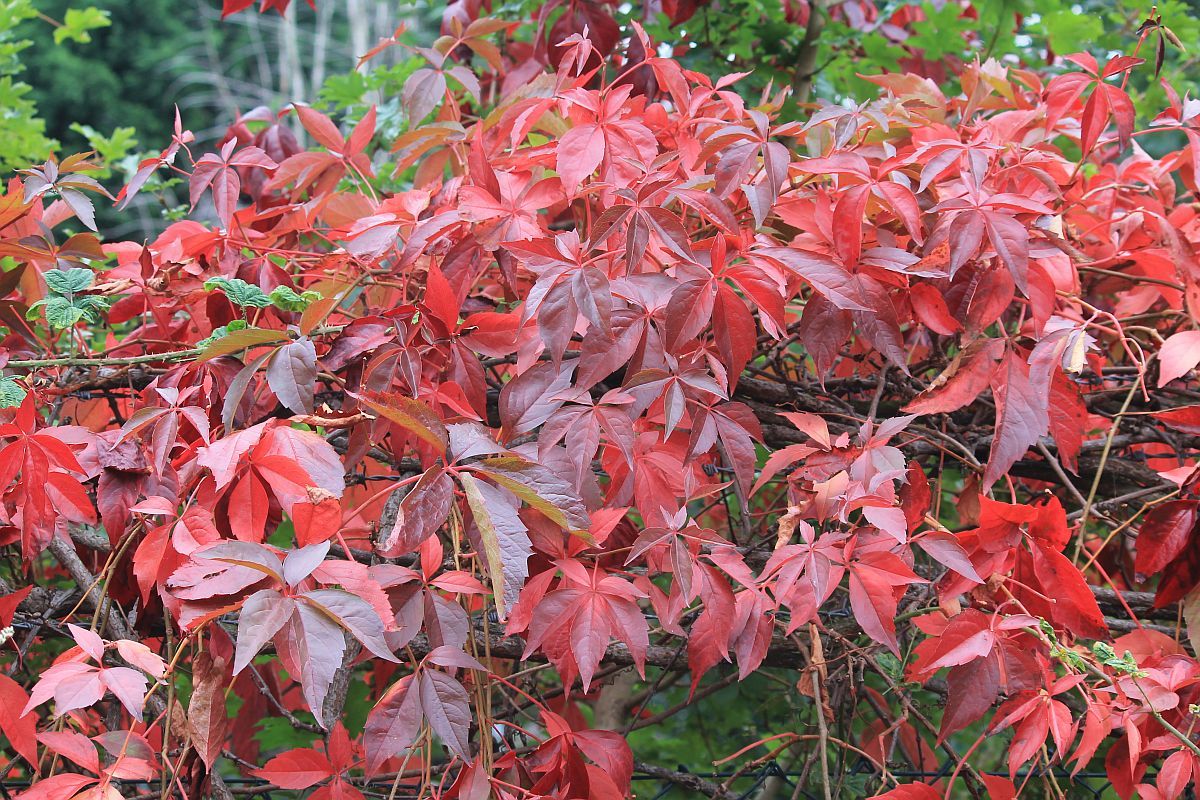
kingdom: Plantae
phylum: Tracheophyta
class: Magnoliopsida
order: Vitales
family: Vitaceae
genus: Parthenocissus
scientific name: Parthenocissus quinquefolia
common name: Virginia-creeper
